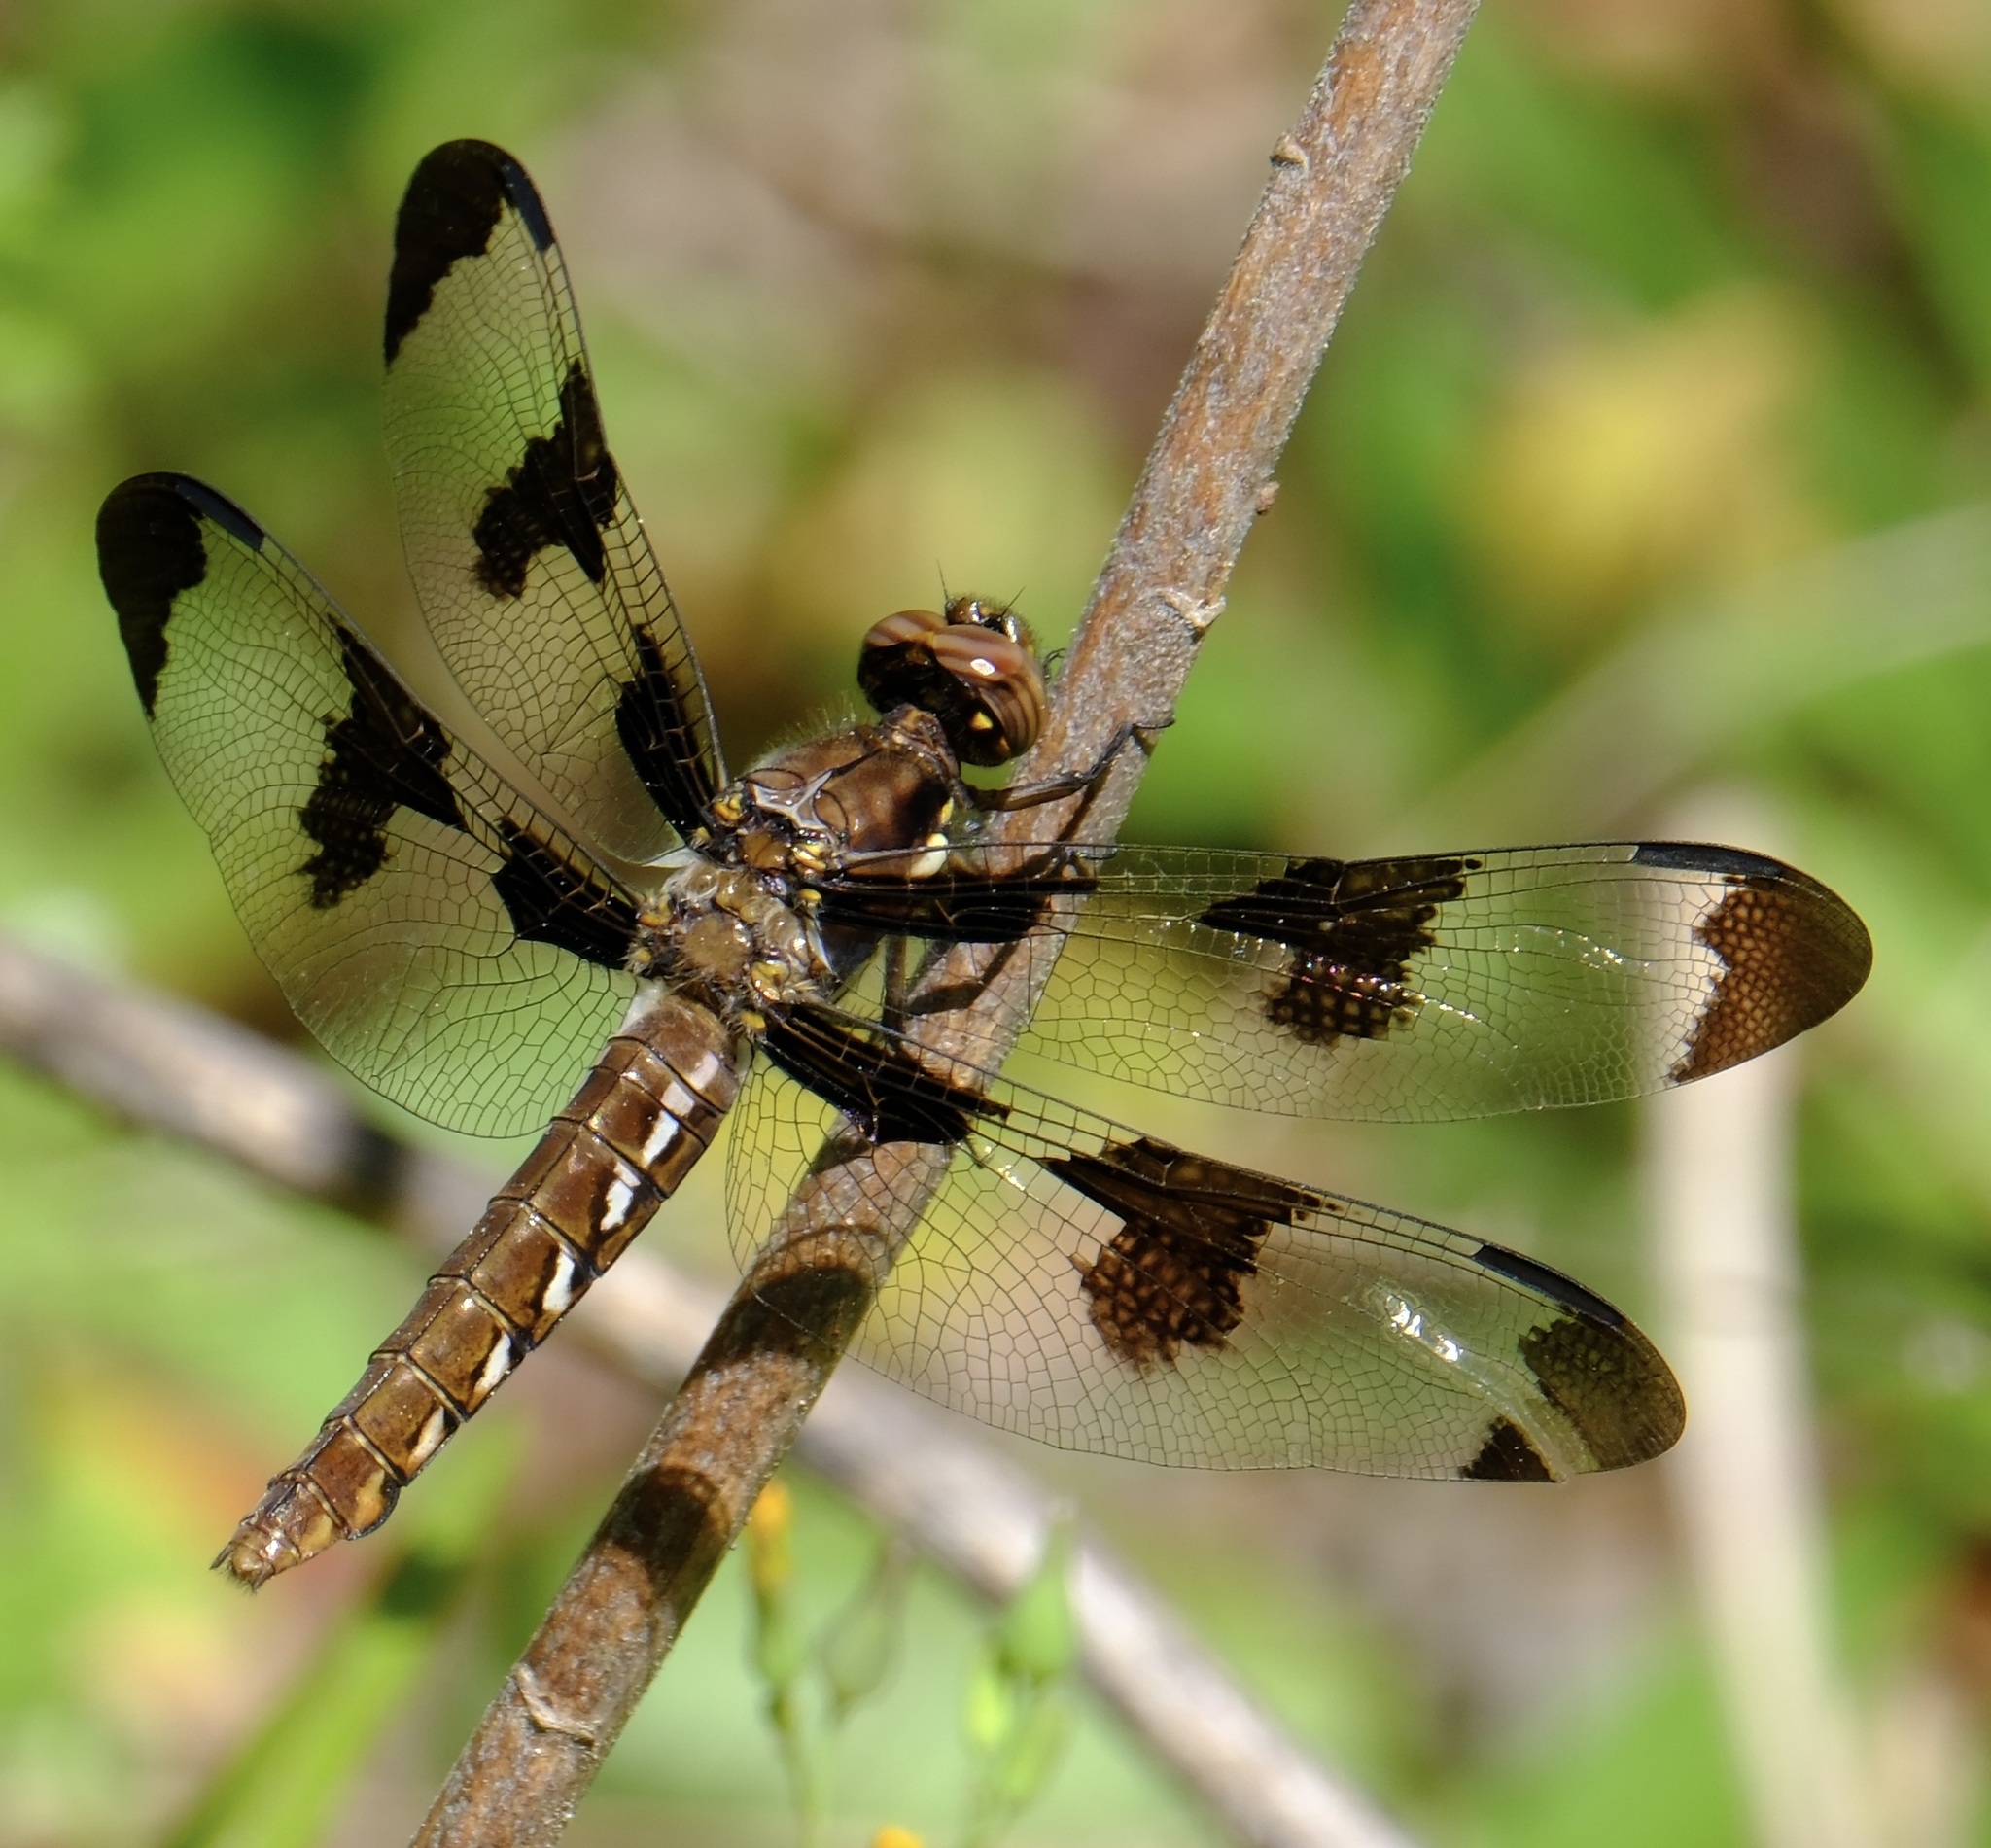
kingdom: Animalia
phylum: Arthropoda
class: Insecta
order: Odonata
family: Libellulidae
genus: Plathemis
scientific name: Plathemis lydia
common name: Common whitetail
